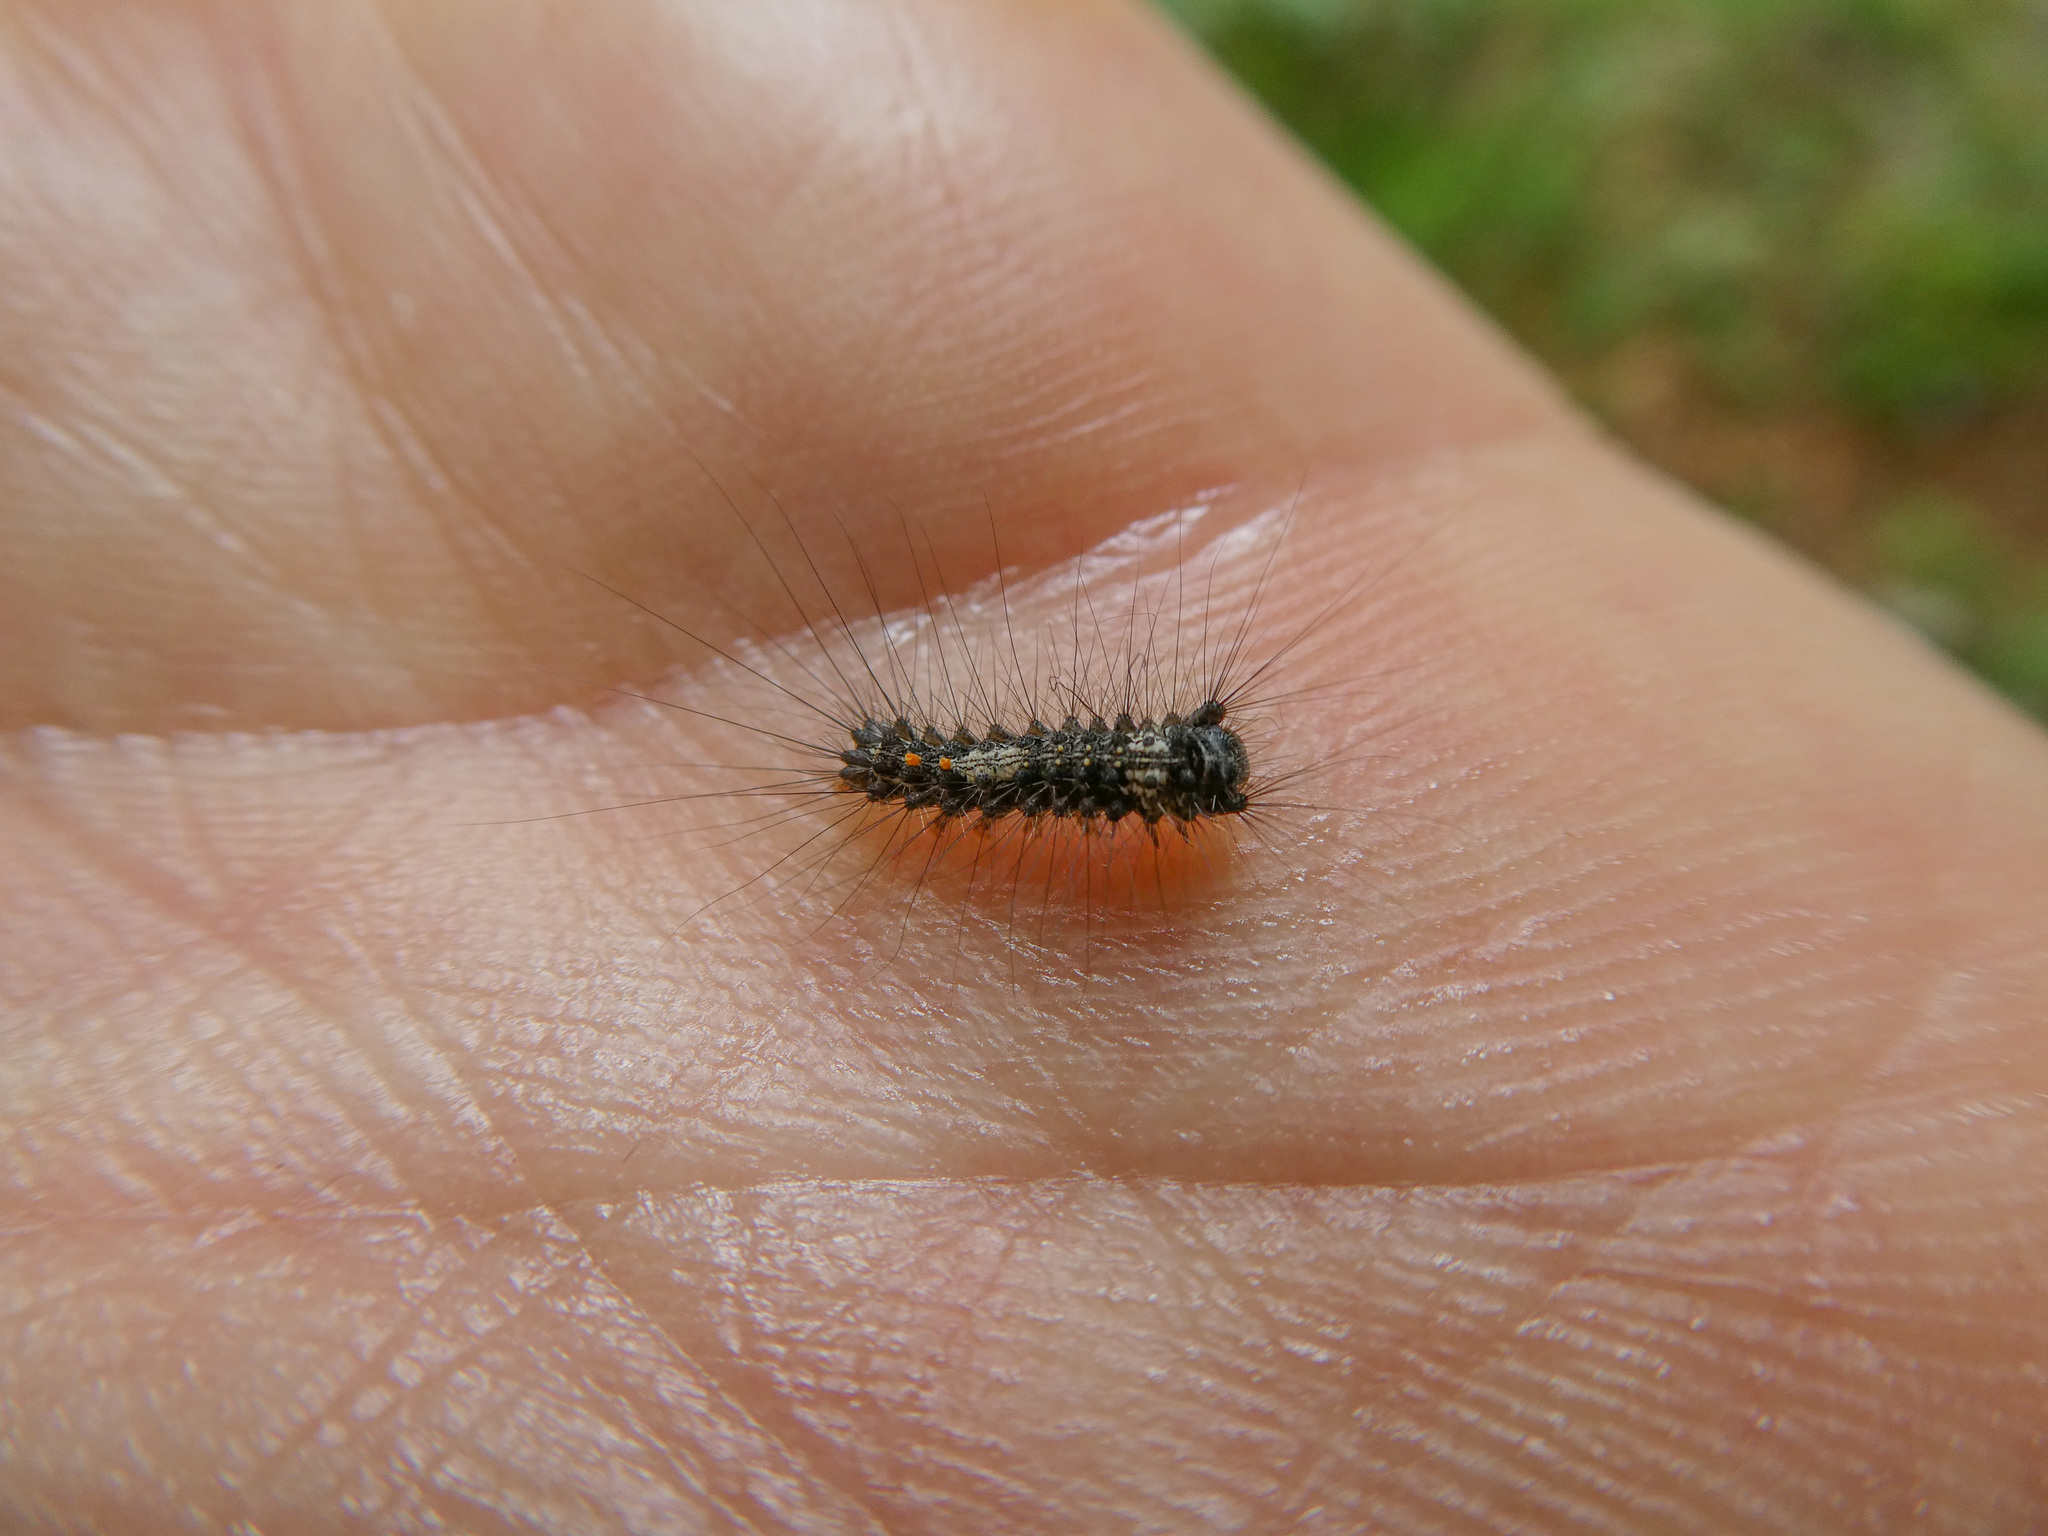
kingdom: Animalia
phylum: Arthropoda
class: Insecta
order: Lepidoptera
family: Erebidae
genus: Lymantria
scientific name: Lymantria monacha
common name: Black arches
